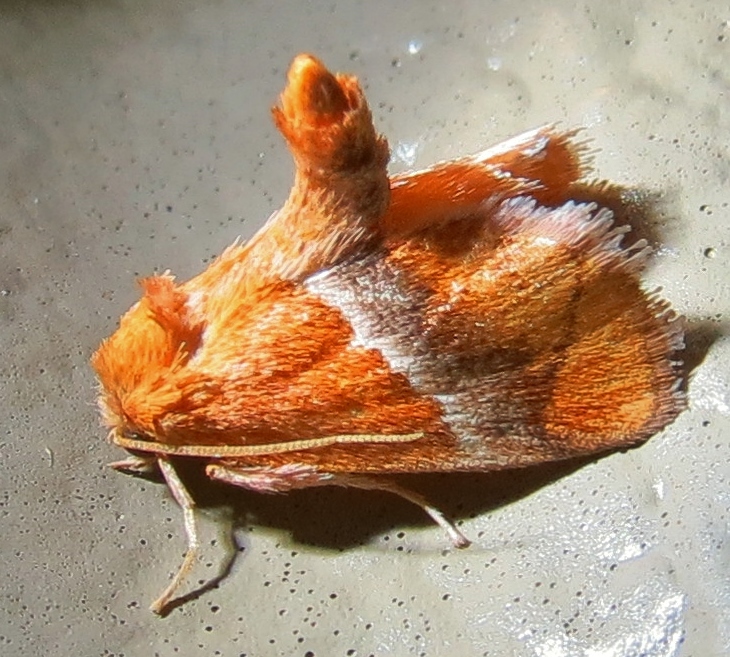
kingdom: Animalia
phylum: Arthropoda
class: Insecta
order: Lepidoptera
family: Limacodidae
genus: Lithacodes
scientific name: Lithacodes fasciola
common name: Yellow-shouldered slug moth
